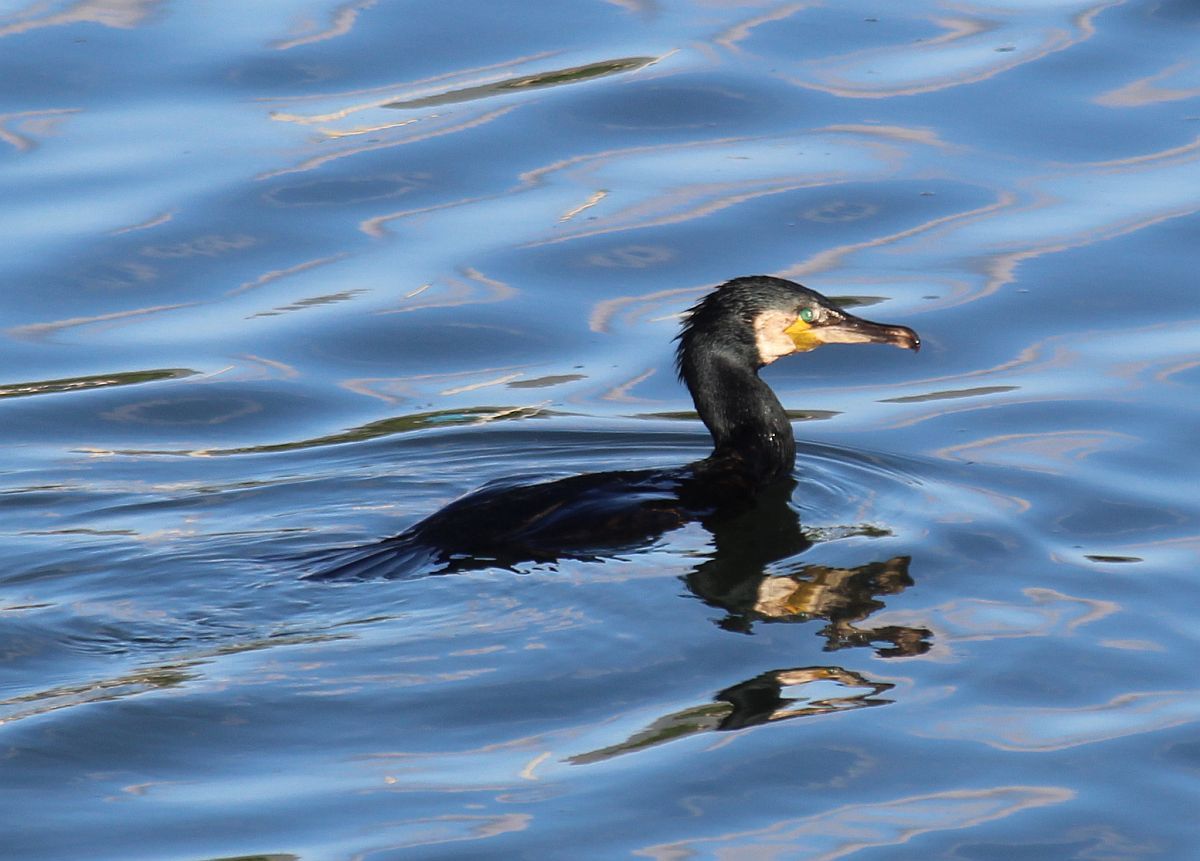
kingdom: Animalia
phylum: Chordata
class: Aves
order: Suliformes
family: Phalacrocoracidae
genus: Phalacrocorax
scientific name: Phalacrocorax carbo
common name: Great cormorant
